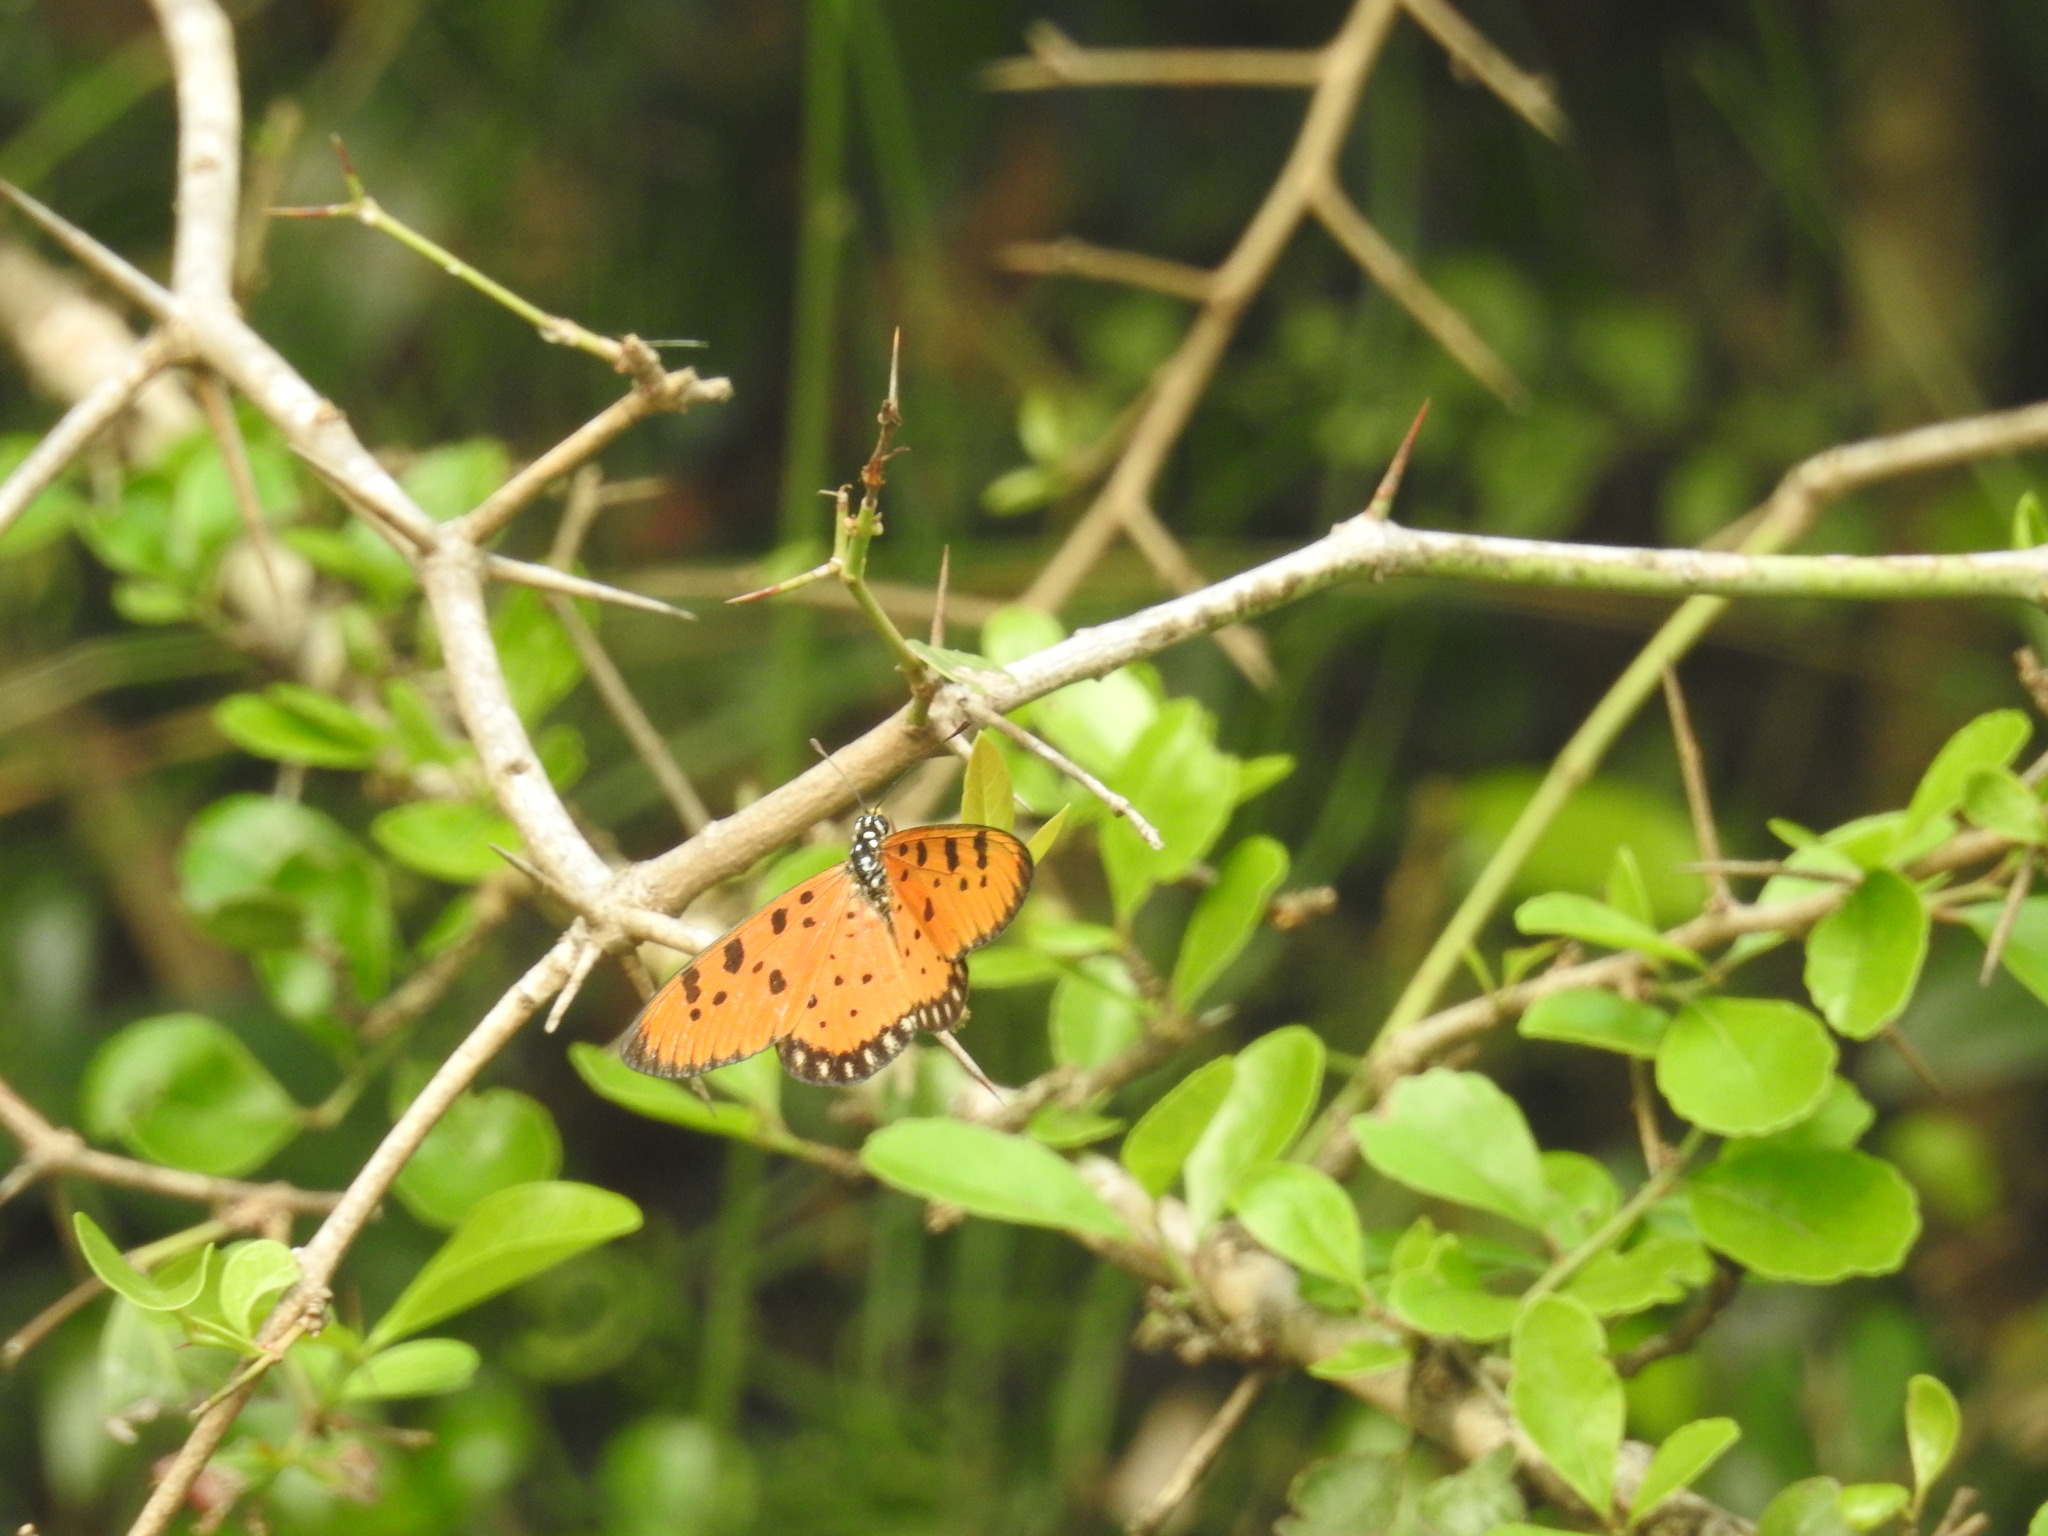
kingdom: Animalia
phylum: Arthropoda
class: Insecta
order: Lepidoptera
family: Nymphalidae
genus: Acraea
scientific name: Acraea terpsicore
